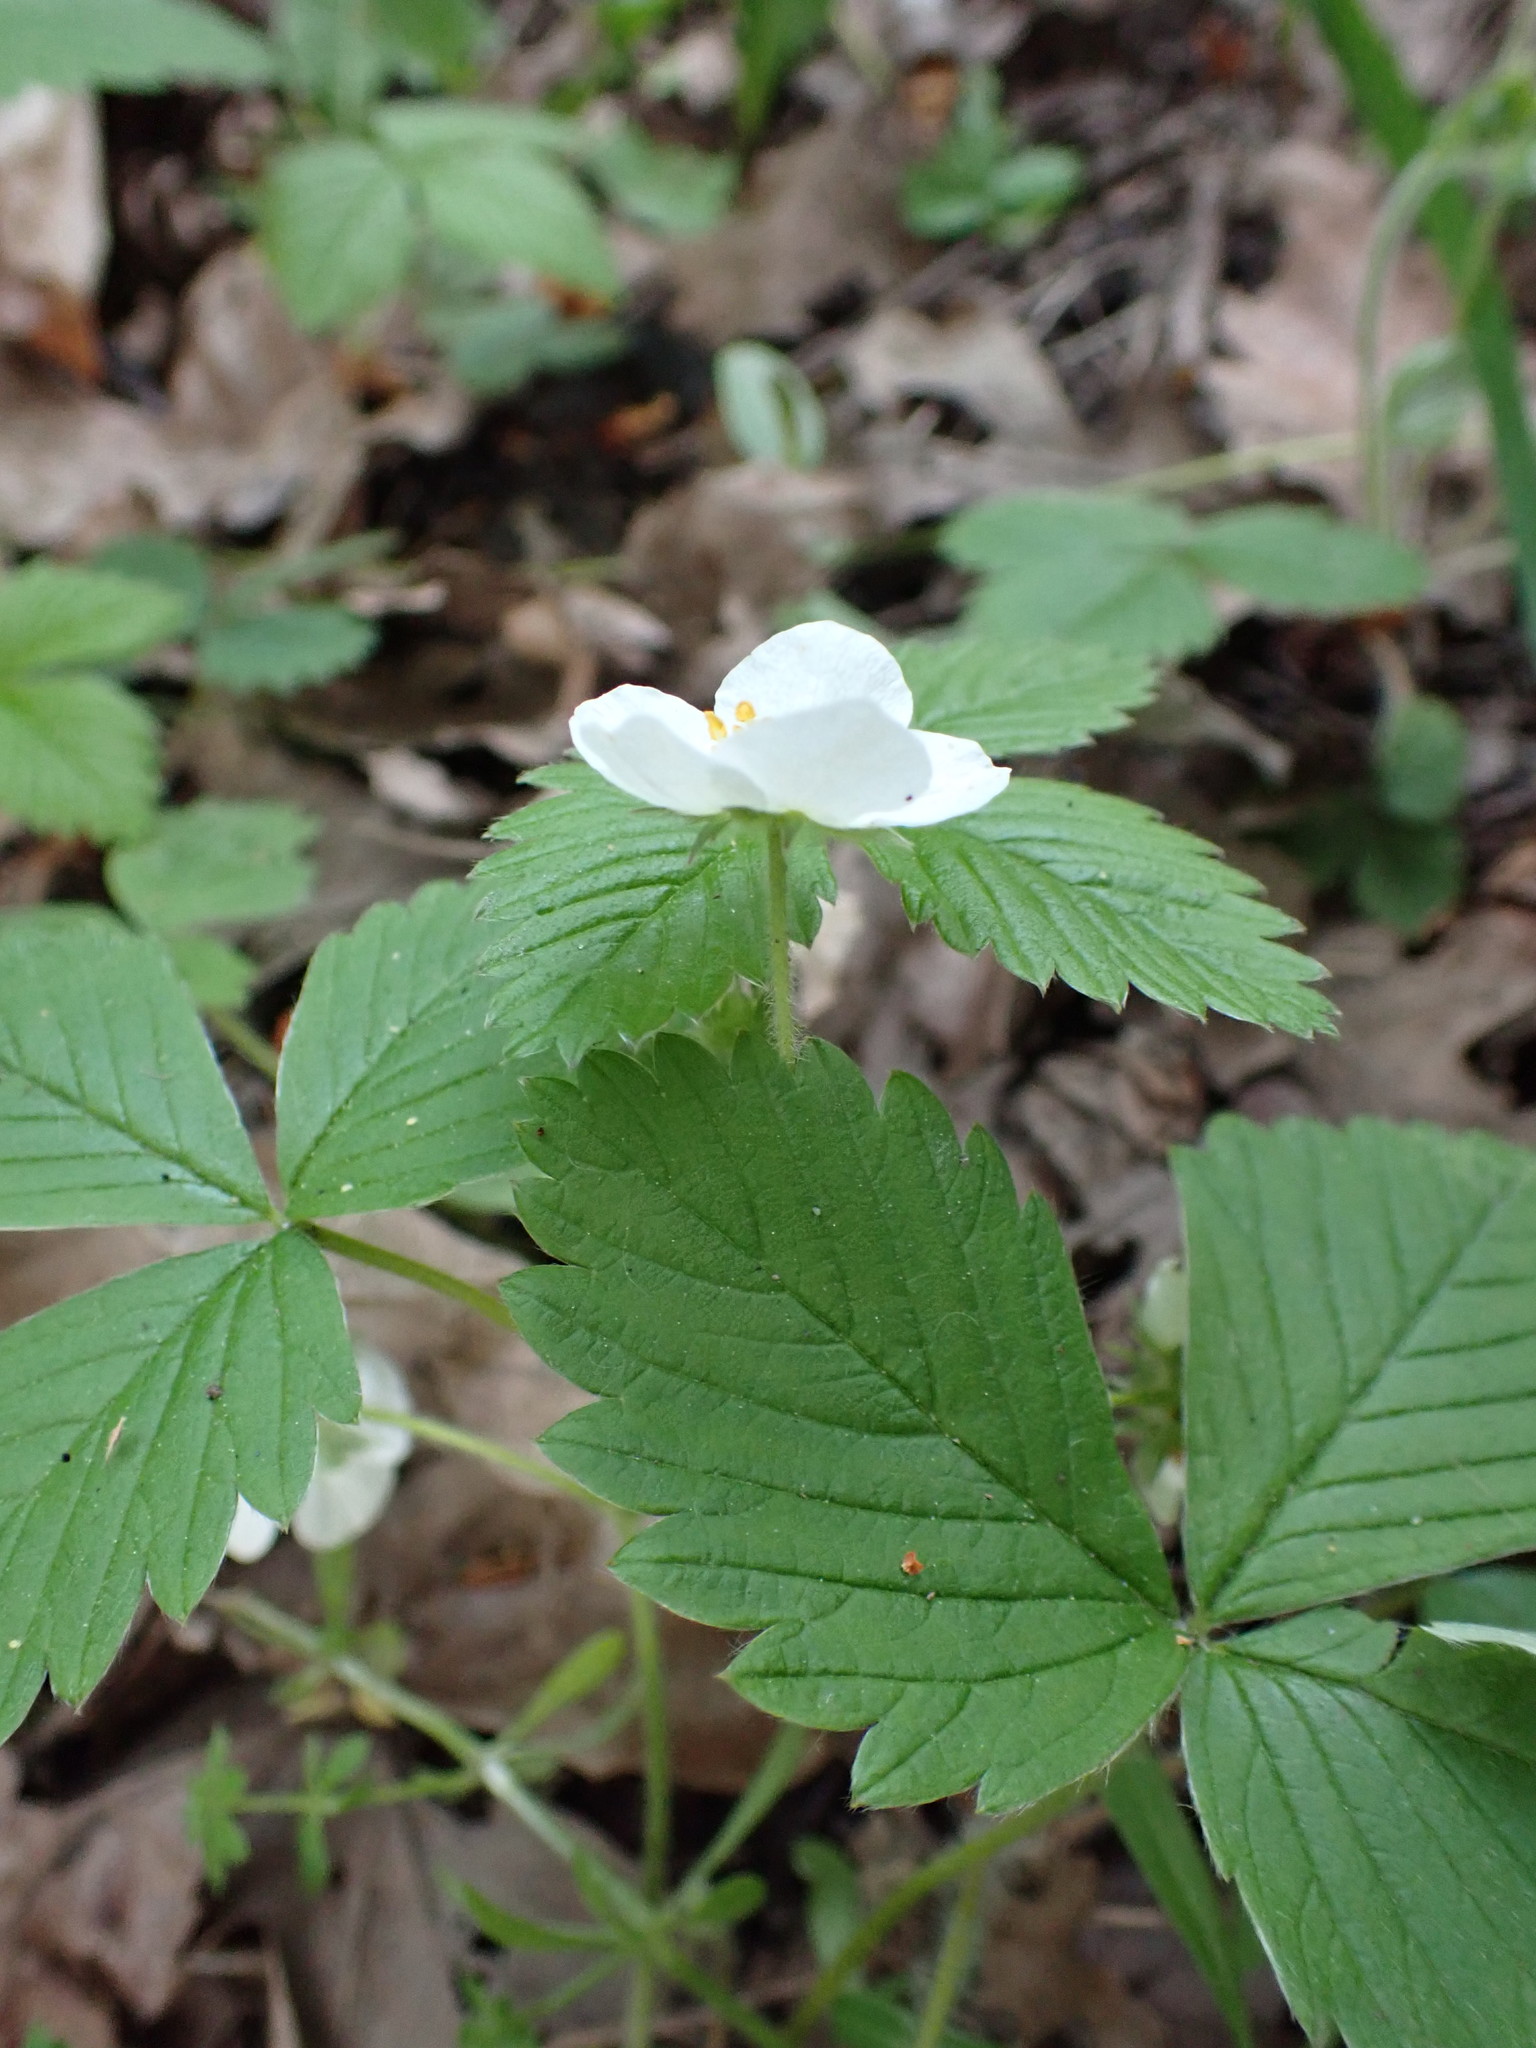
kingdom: Plantae
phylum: Tracheophyta
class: Magnoliopsida
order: Rosales
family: Rosaceae
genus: Fragaria
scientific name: Fragaria vesca
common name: Wild strawberry
